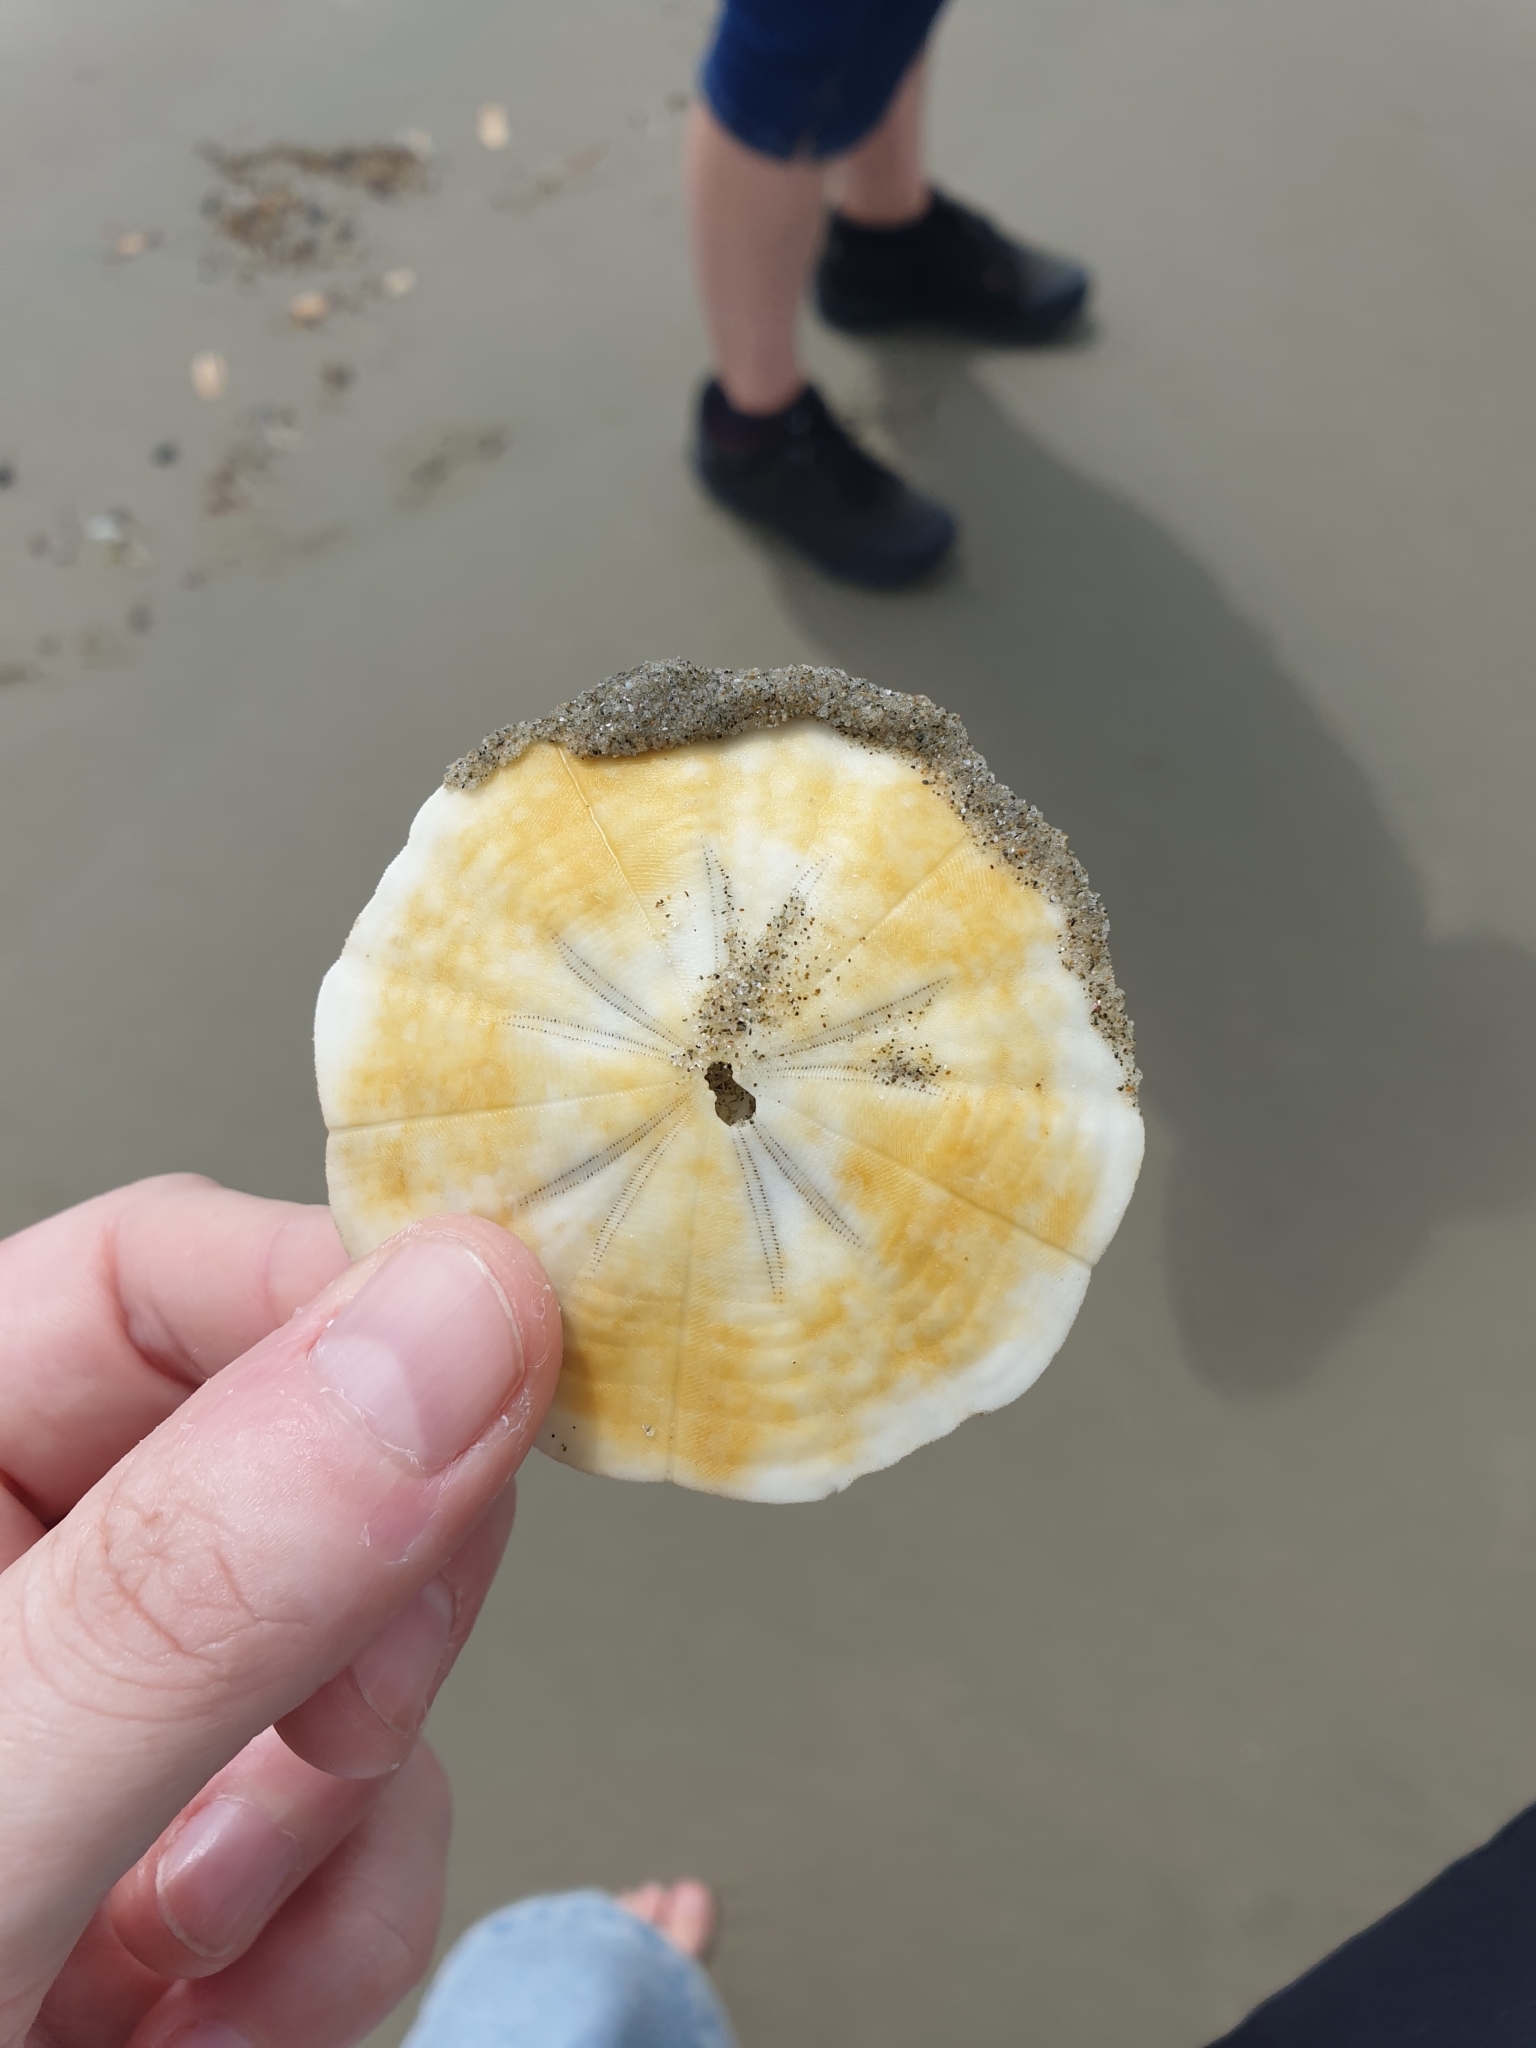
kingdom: Animalia
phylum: Echinodermata
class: Echinoidea
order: Clypeasteroida
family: Clypeasteridae
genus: Fellaster
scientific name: Fellaster zelandiae
